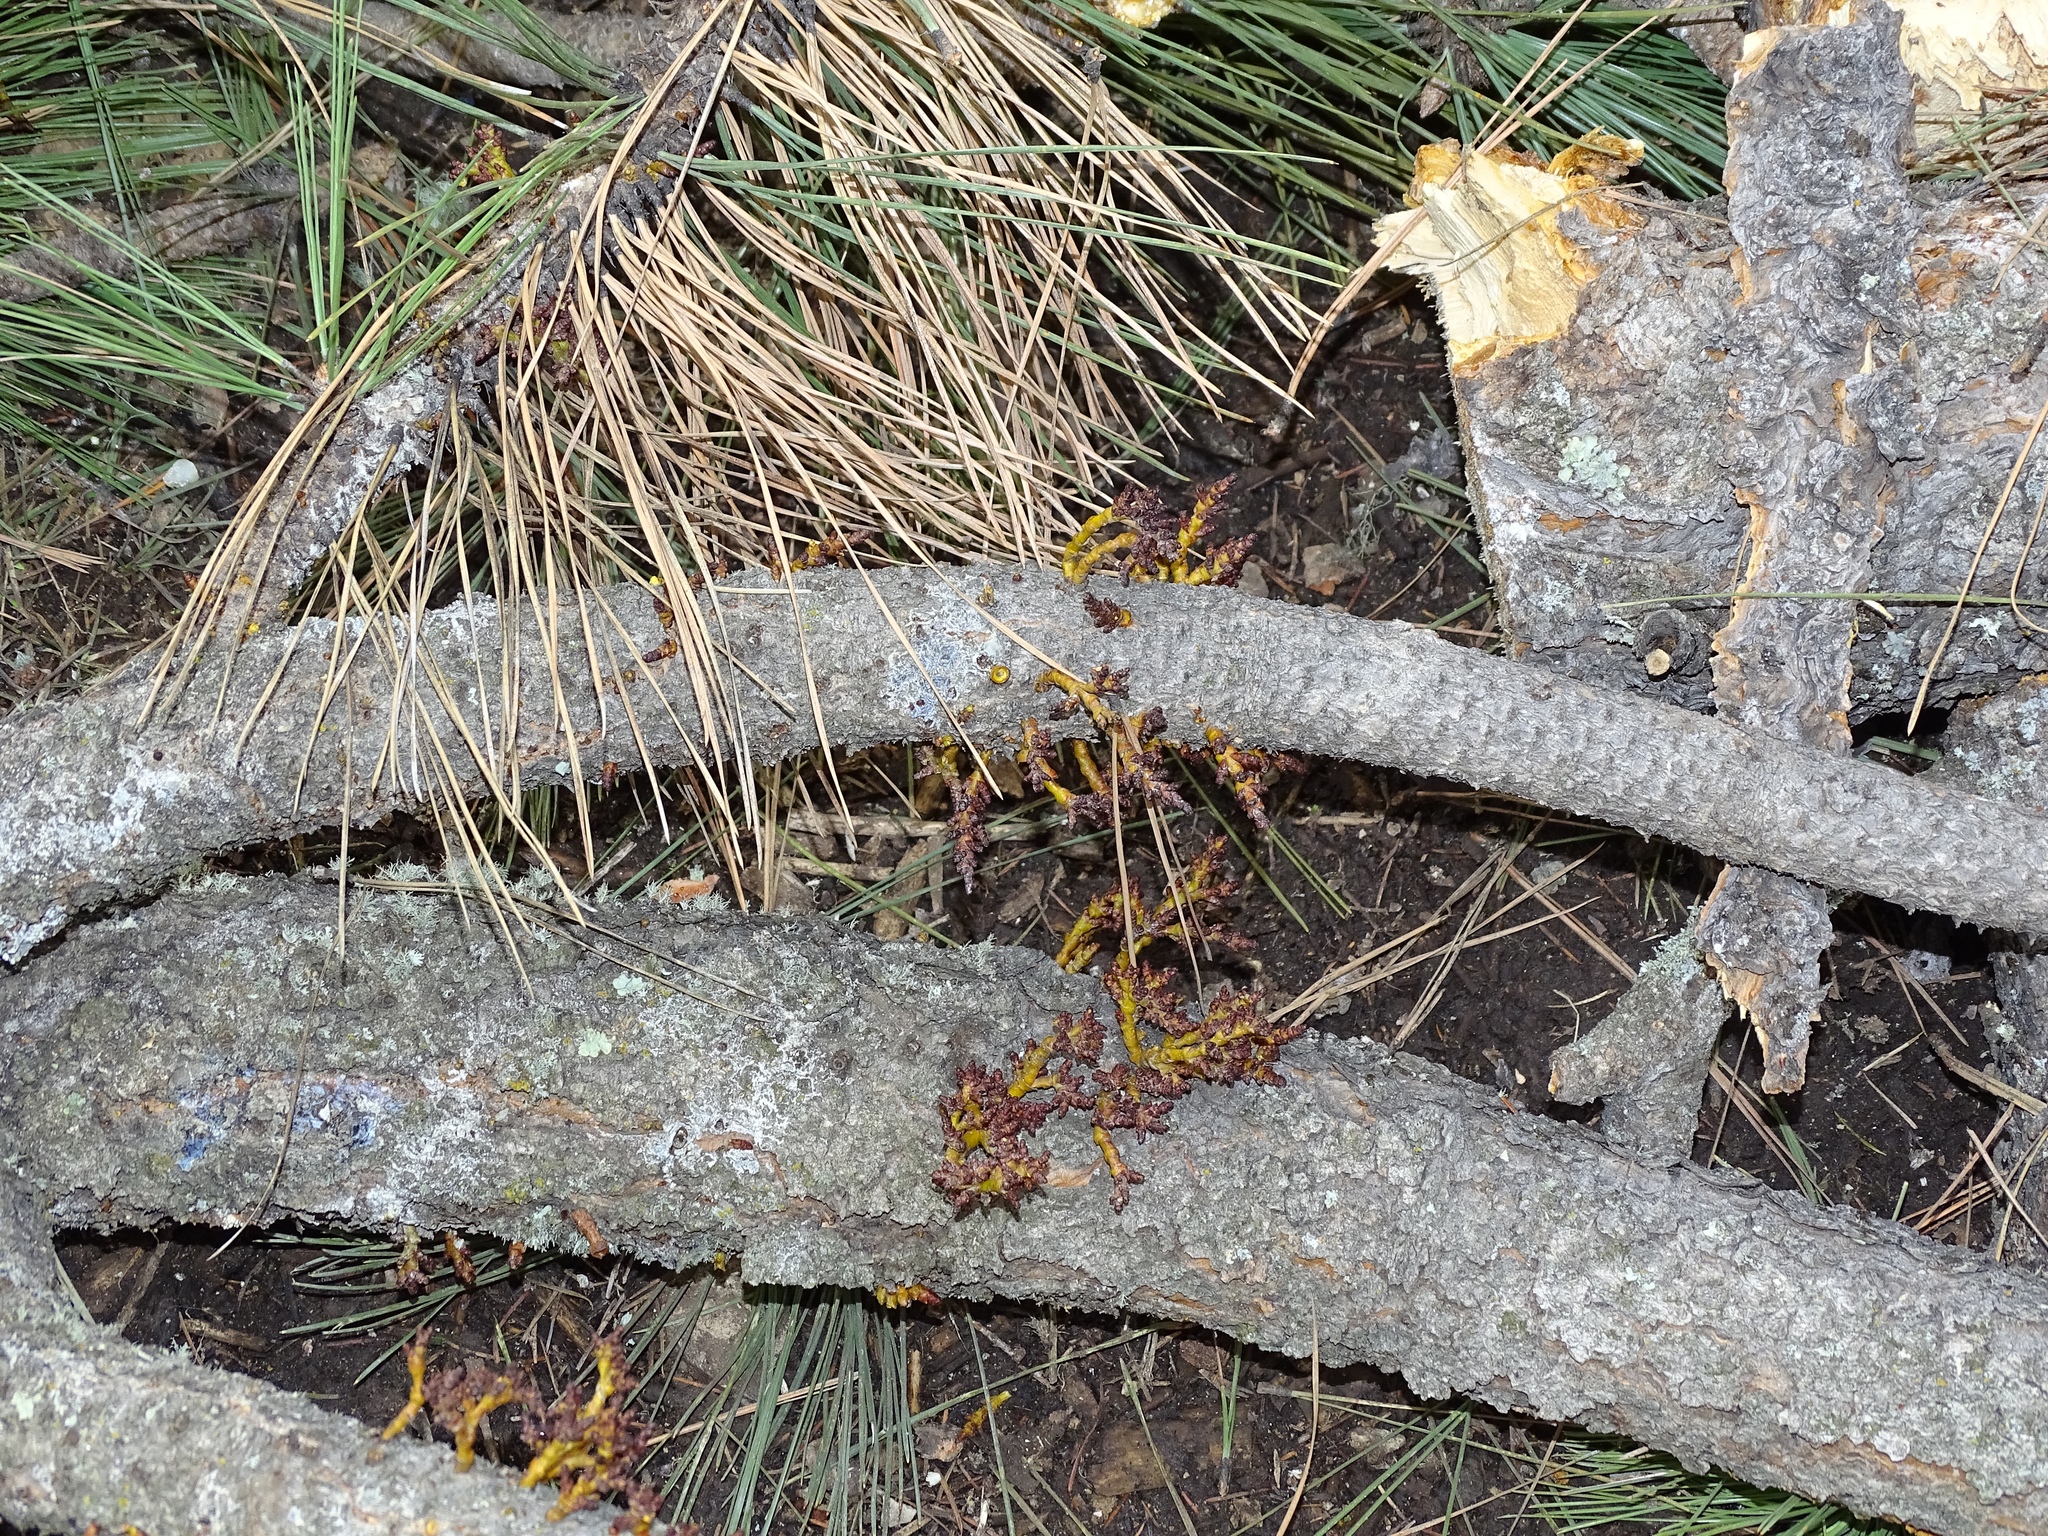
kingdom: Plantae
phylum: Tracheophyta
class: Magnoliopsida
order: Santalales
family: Viscaceae
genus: Arceuthobium
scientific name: Arceuthobium vaginatum
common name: Southwestern dwarf-mistletoe
